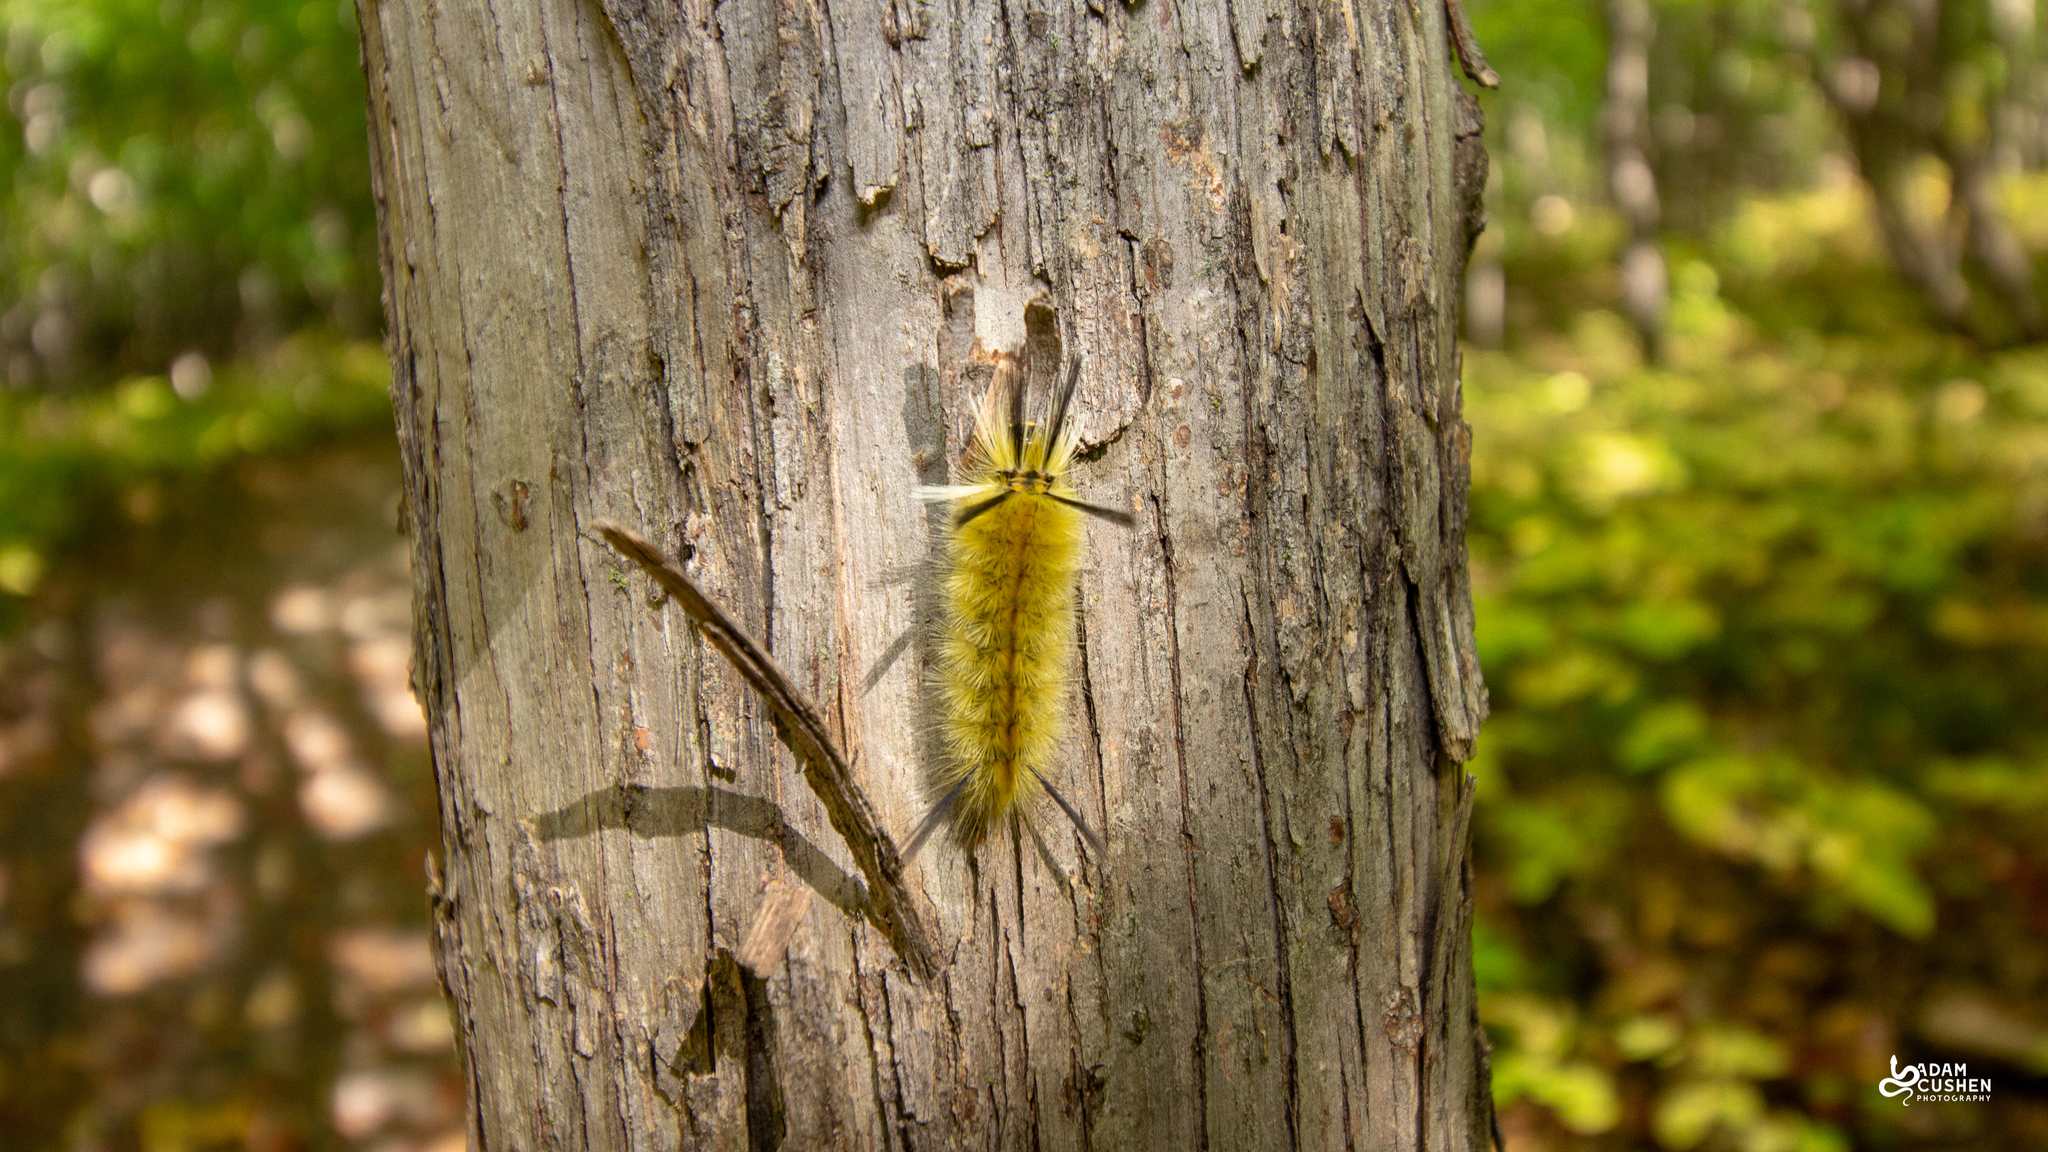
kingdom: Animalia
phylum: Arthropoda
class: Insecta
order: Lepidoptera
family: Erebidae
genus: Halysidota
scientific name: Halysidota tessellaris
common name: Banded tussock moth
